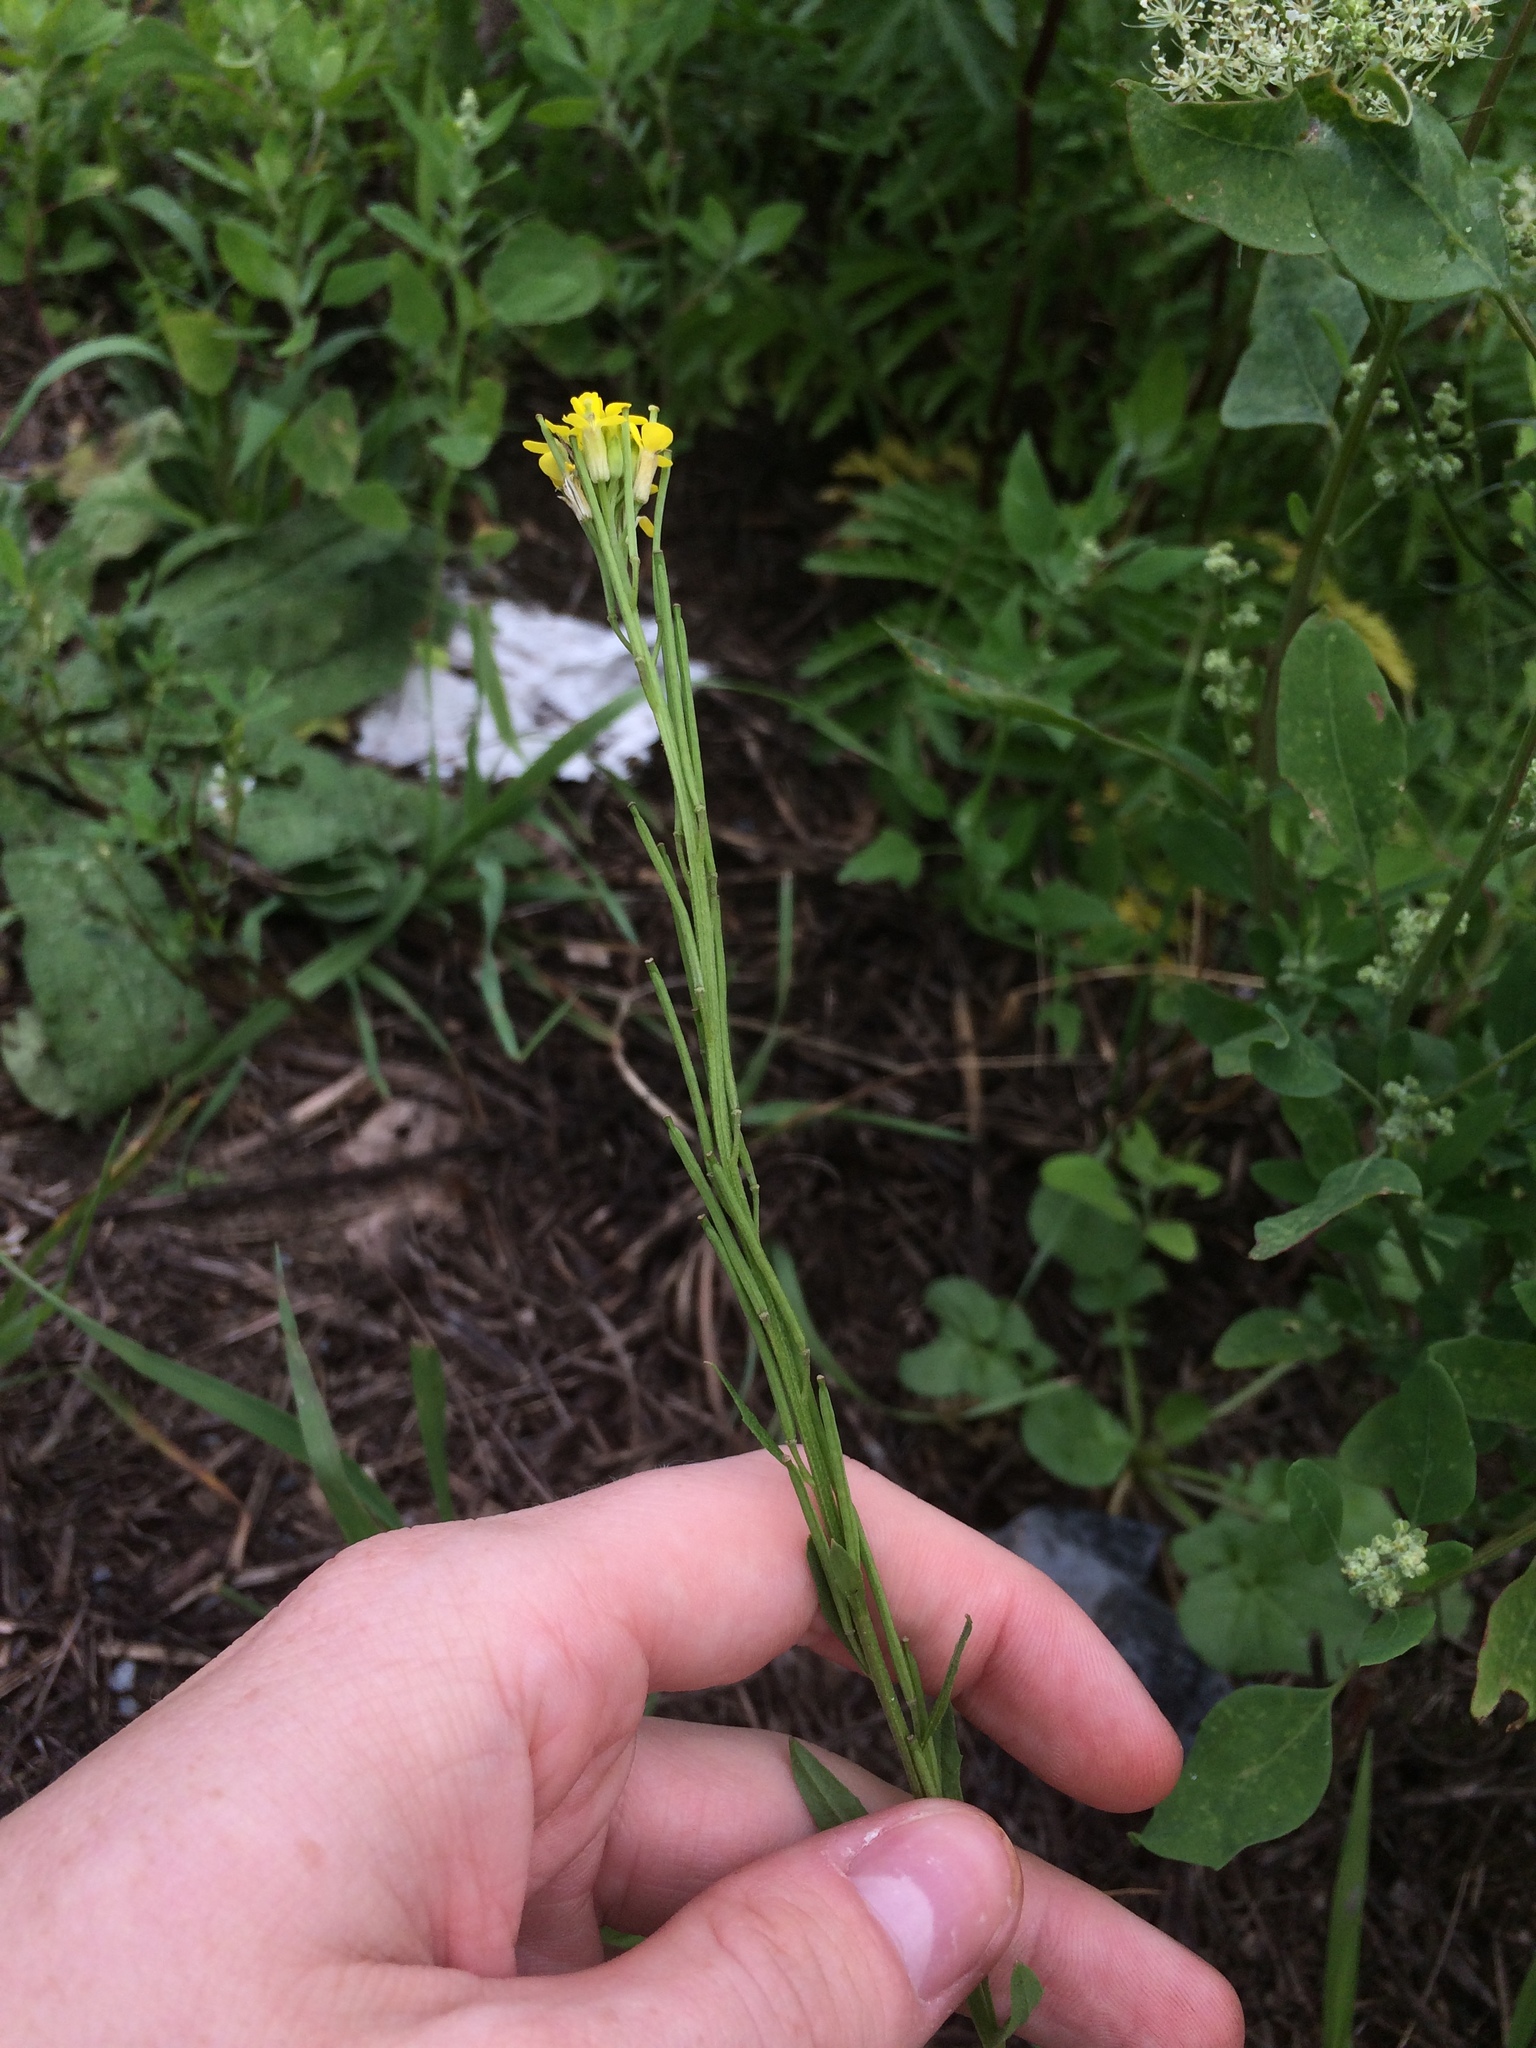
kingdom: Plantae
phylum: Tracheophyta
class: Magnoliopsida
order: Asterales
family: Asteraceae
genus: Tragopogon
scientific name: Tragopogon dubius
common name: Yellow salsify
